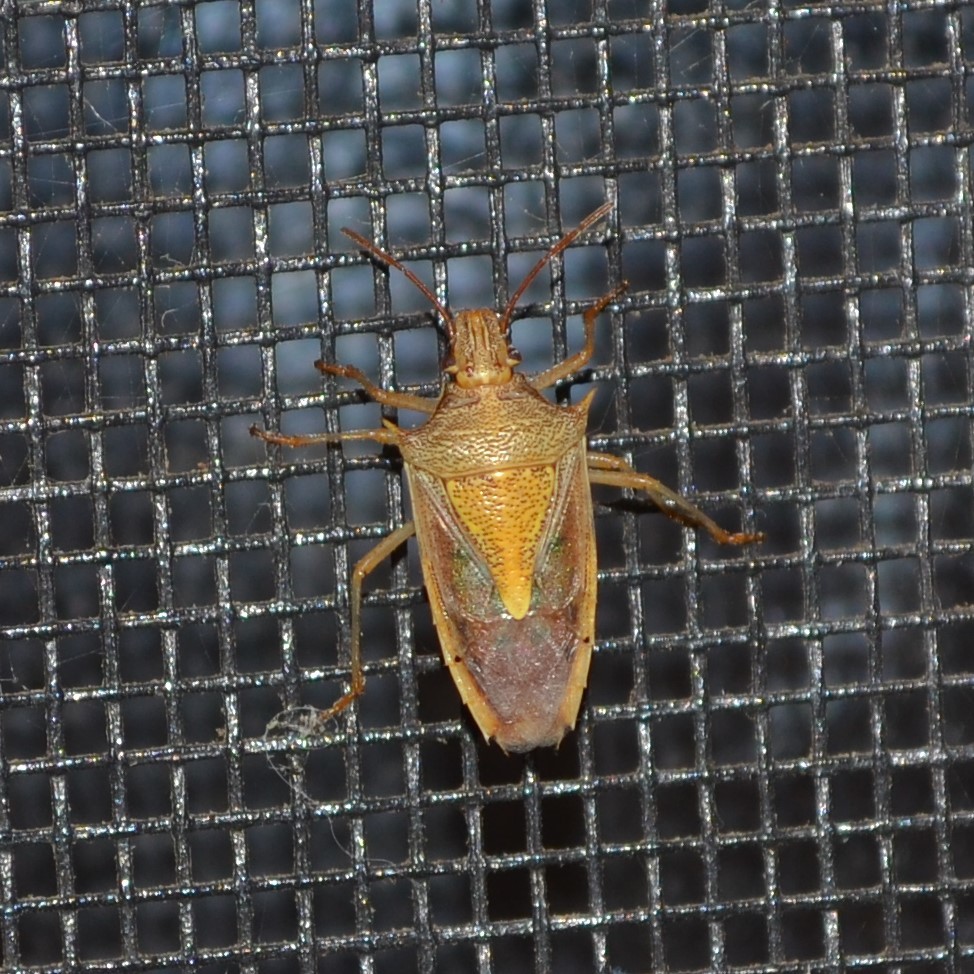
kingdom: Animalia
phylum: Arthropoda
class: Insecta
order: Hemiptera
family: Pentatomidae
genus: Oebalus
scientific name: Oebalus pugnax
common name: Rice stink bug
